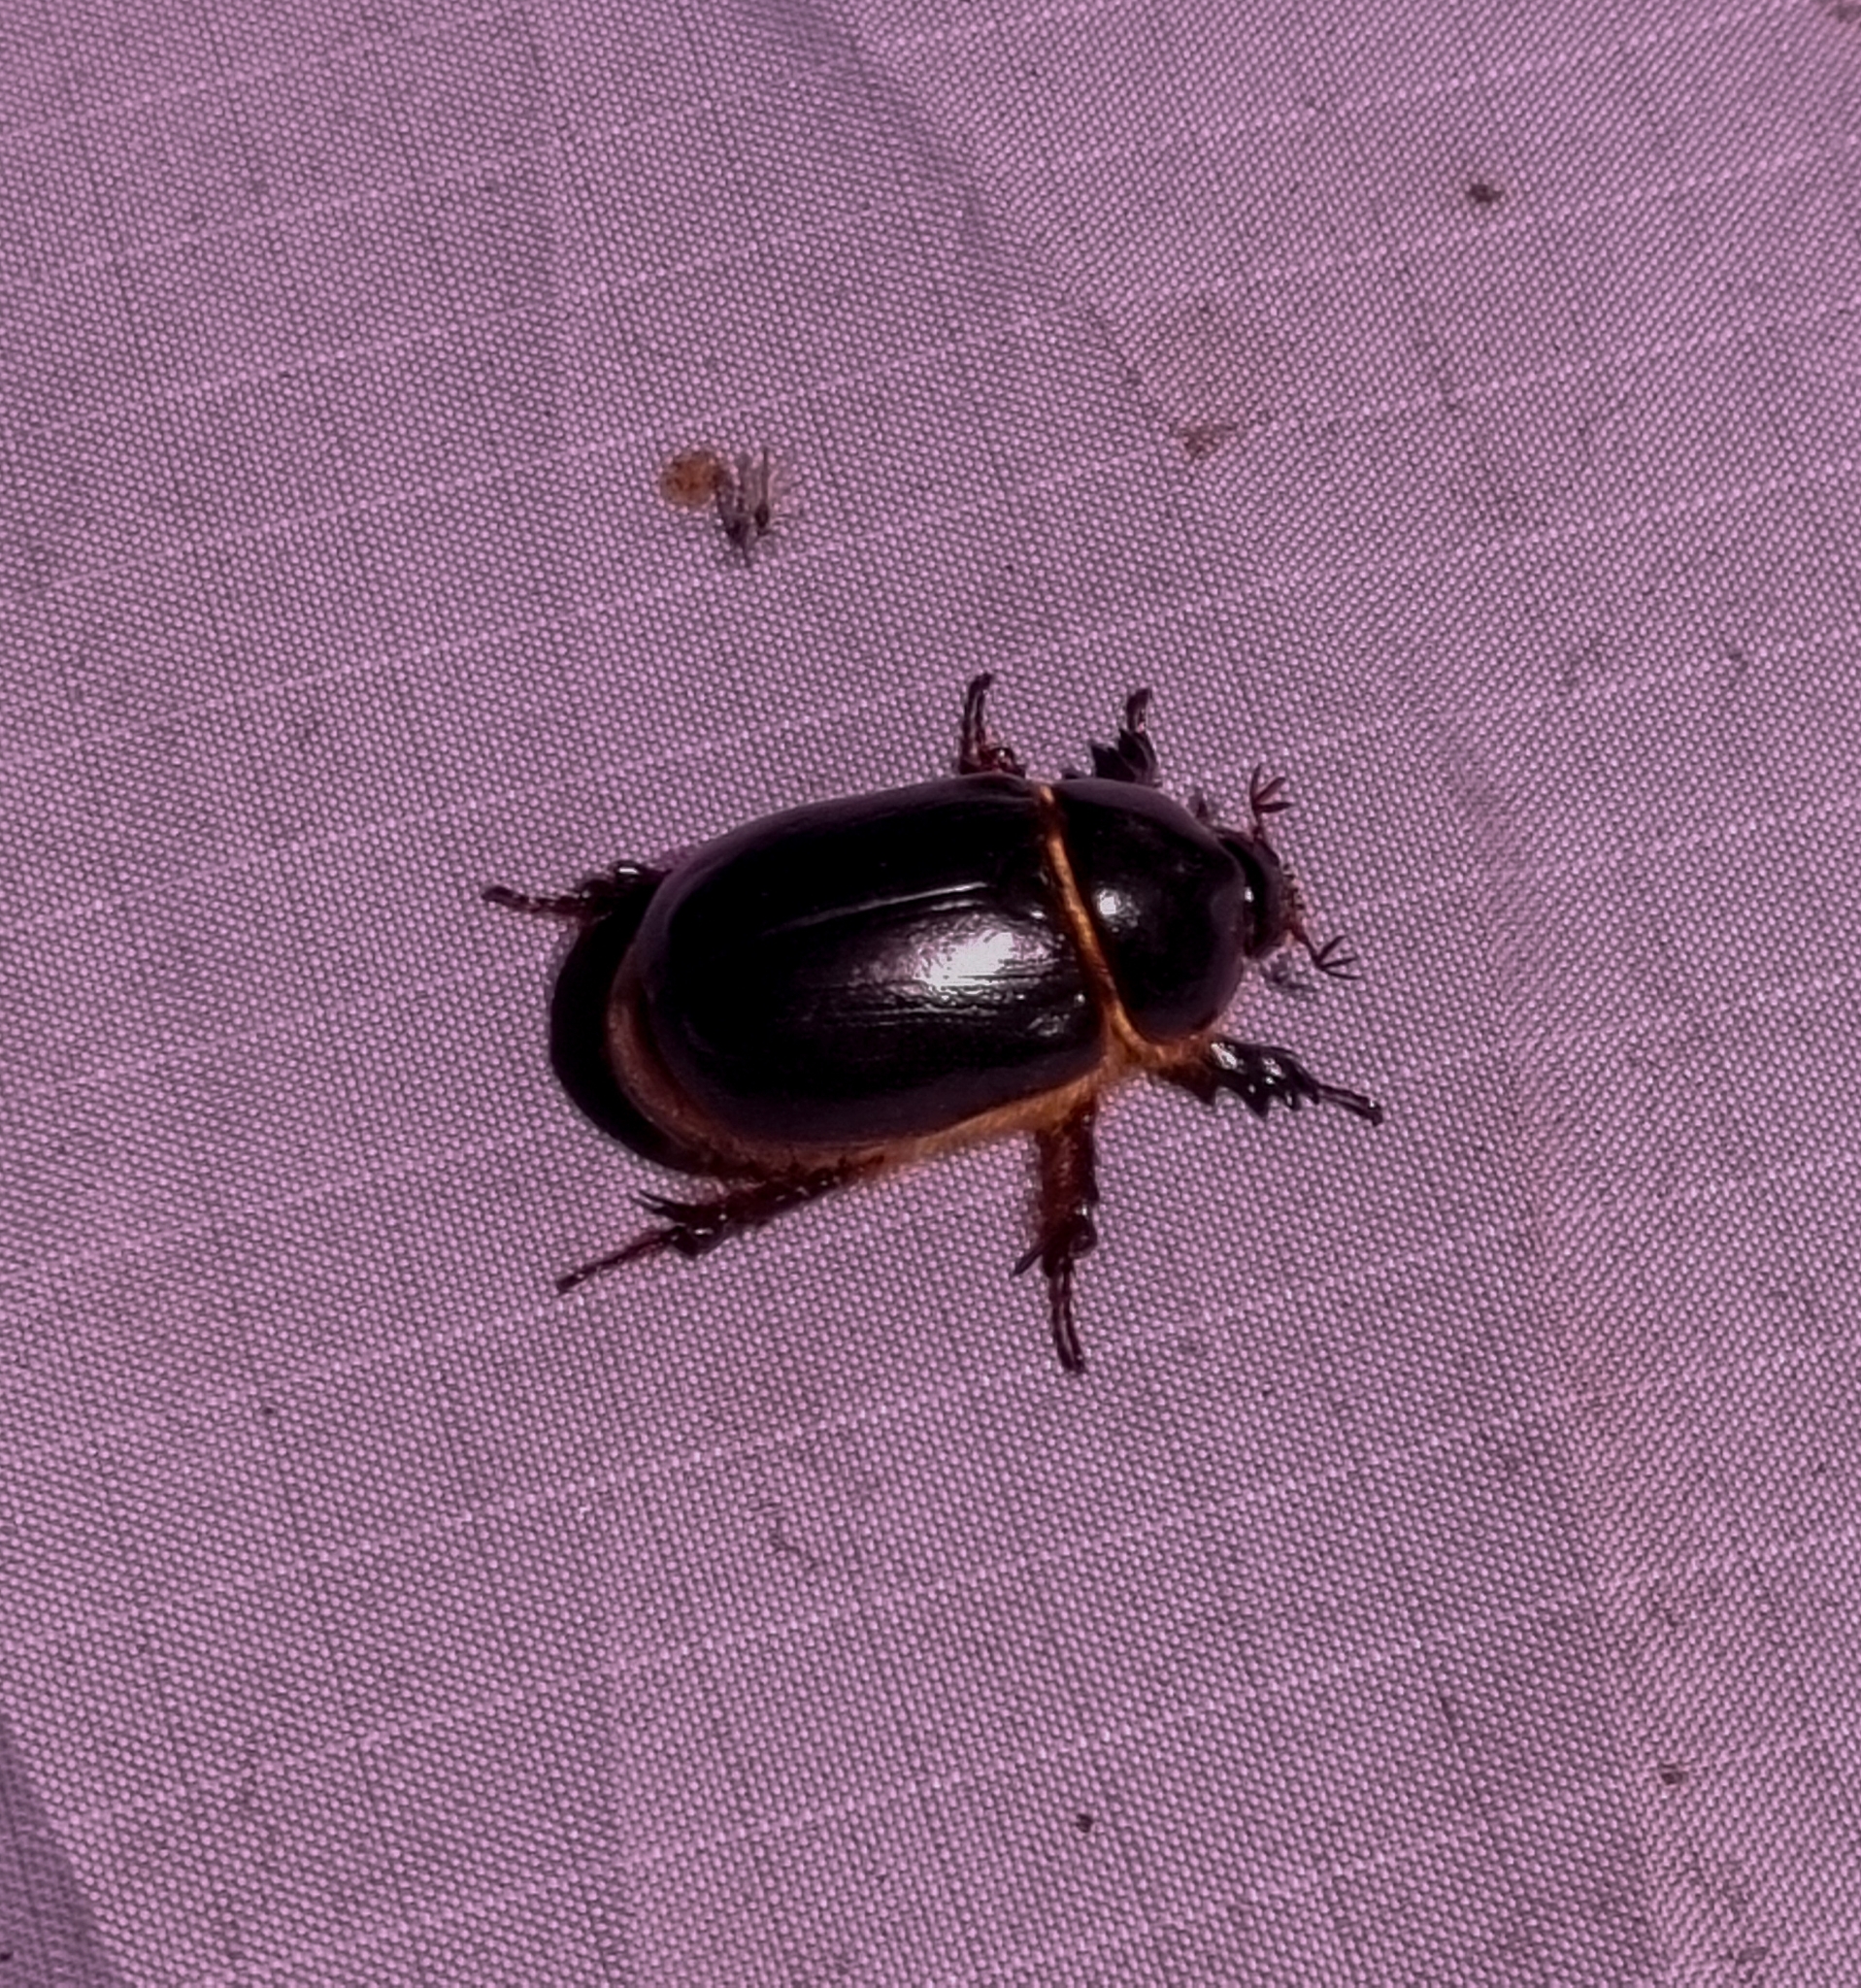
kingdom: Animalia
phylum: Arthropoda
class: Insecta
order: Coleoptera
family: Scarabaeidae
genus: Ligyrus
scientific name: Ligyrus villosus
